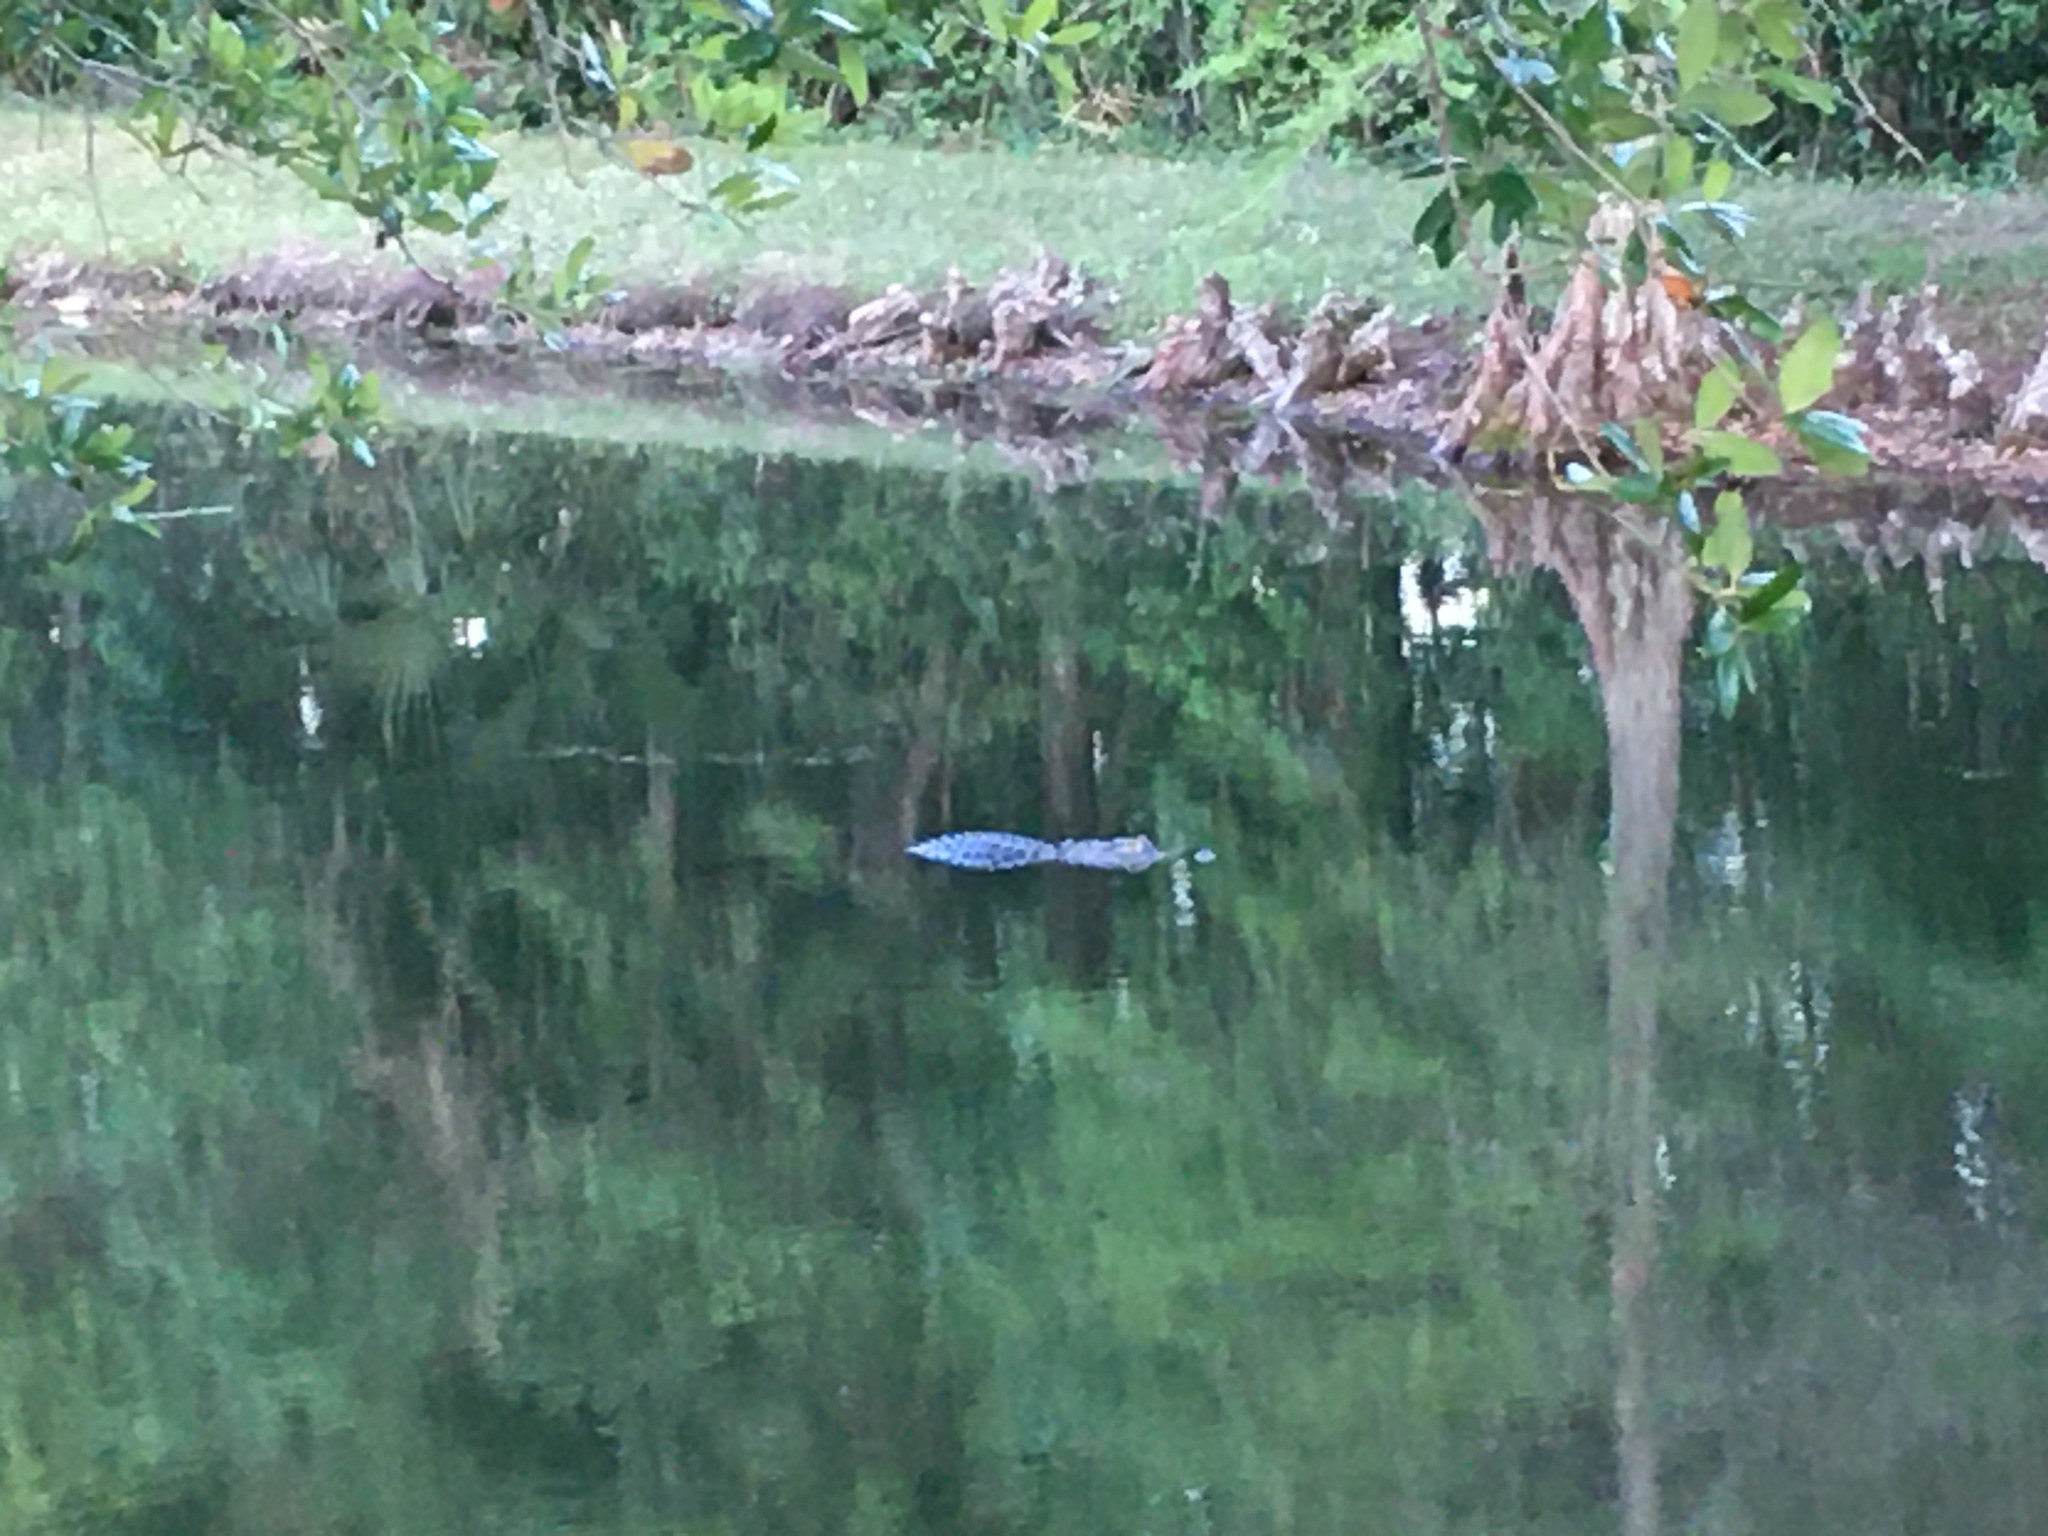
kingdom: Animalia
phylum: Chordata
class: Crocodylia
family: Alligatoridae
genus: Alligator
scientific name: Alligator mississippiensis
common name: American alligator
